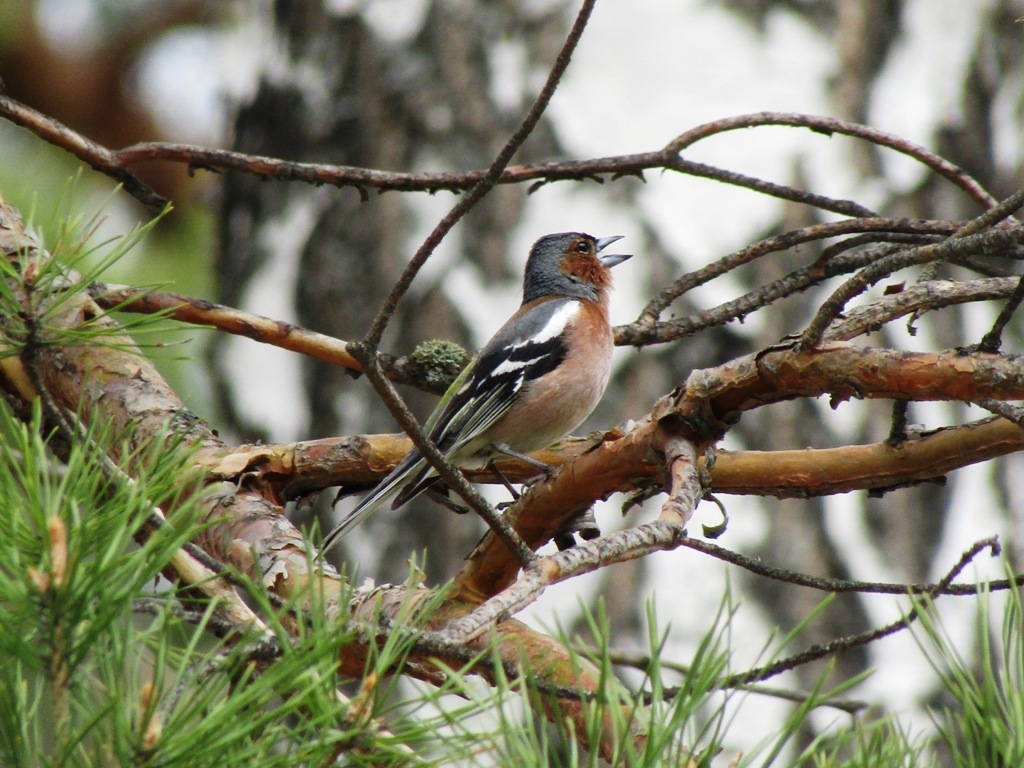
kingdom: Animalia
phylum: Chordata
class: Aves
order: Passeriformes
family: Fringillidae
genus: Fringilla
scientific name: Fringilla coelebs
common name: Common chaffinch
